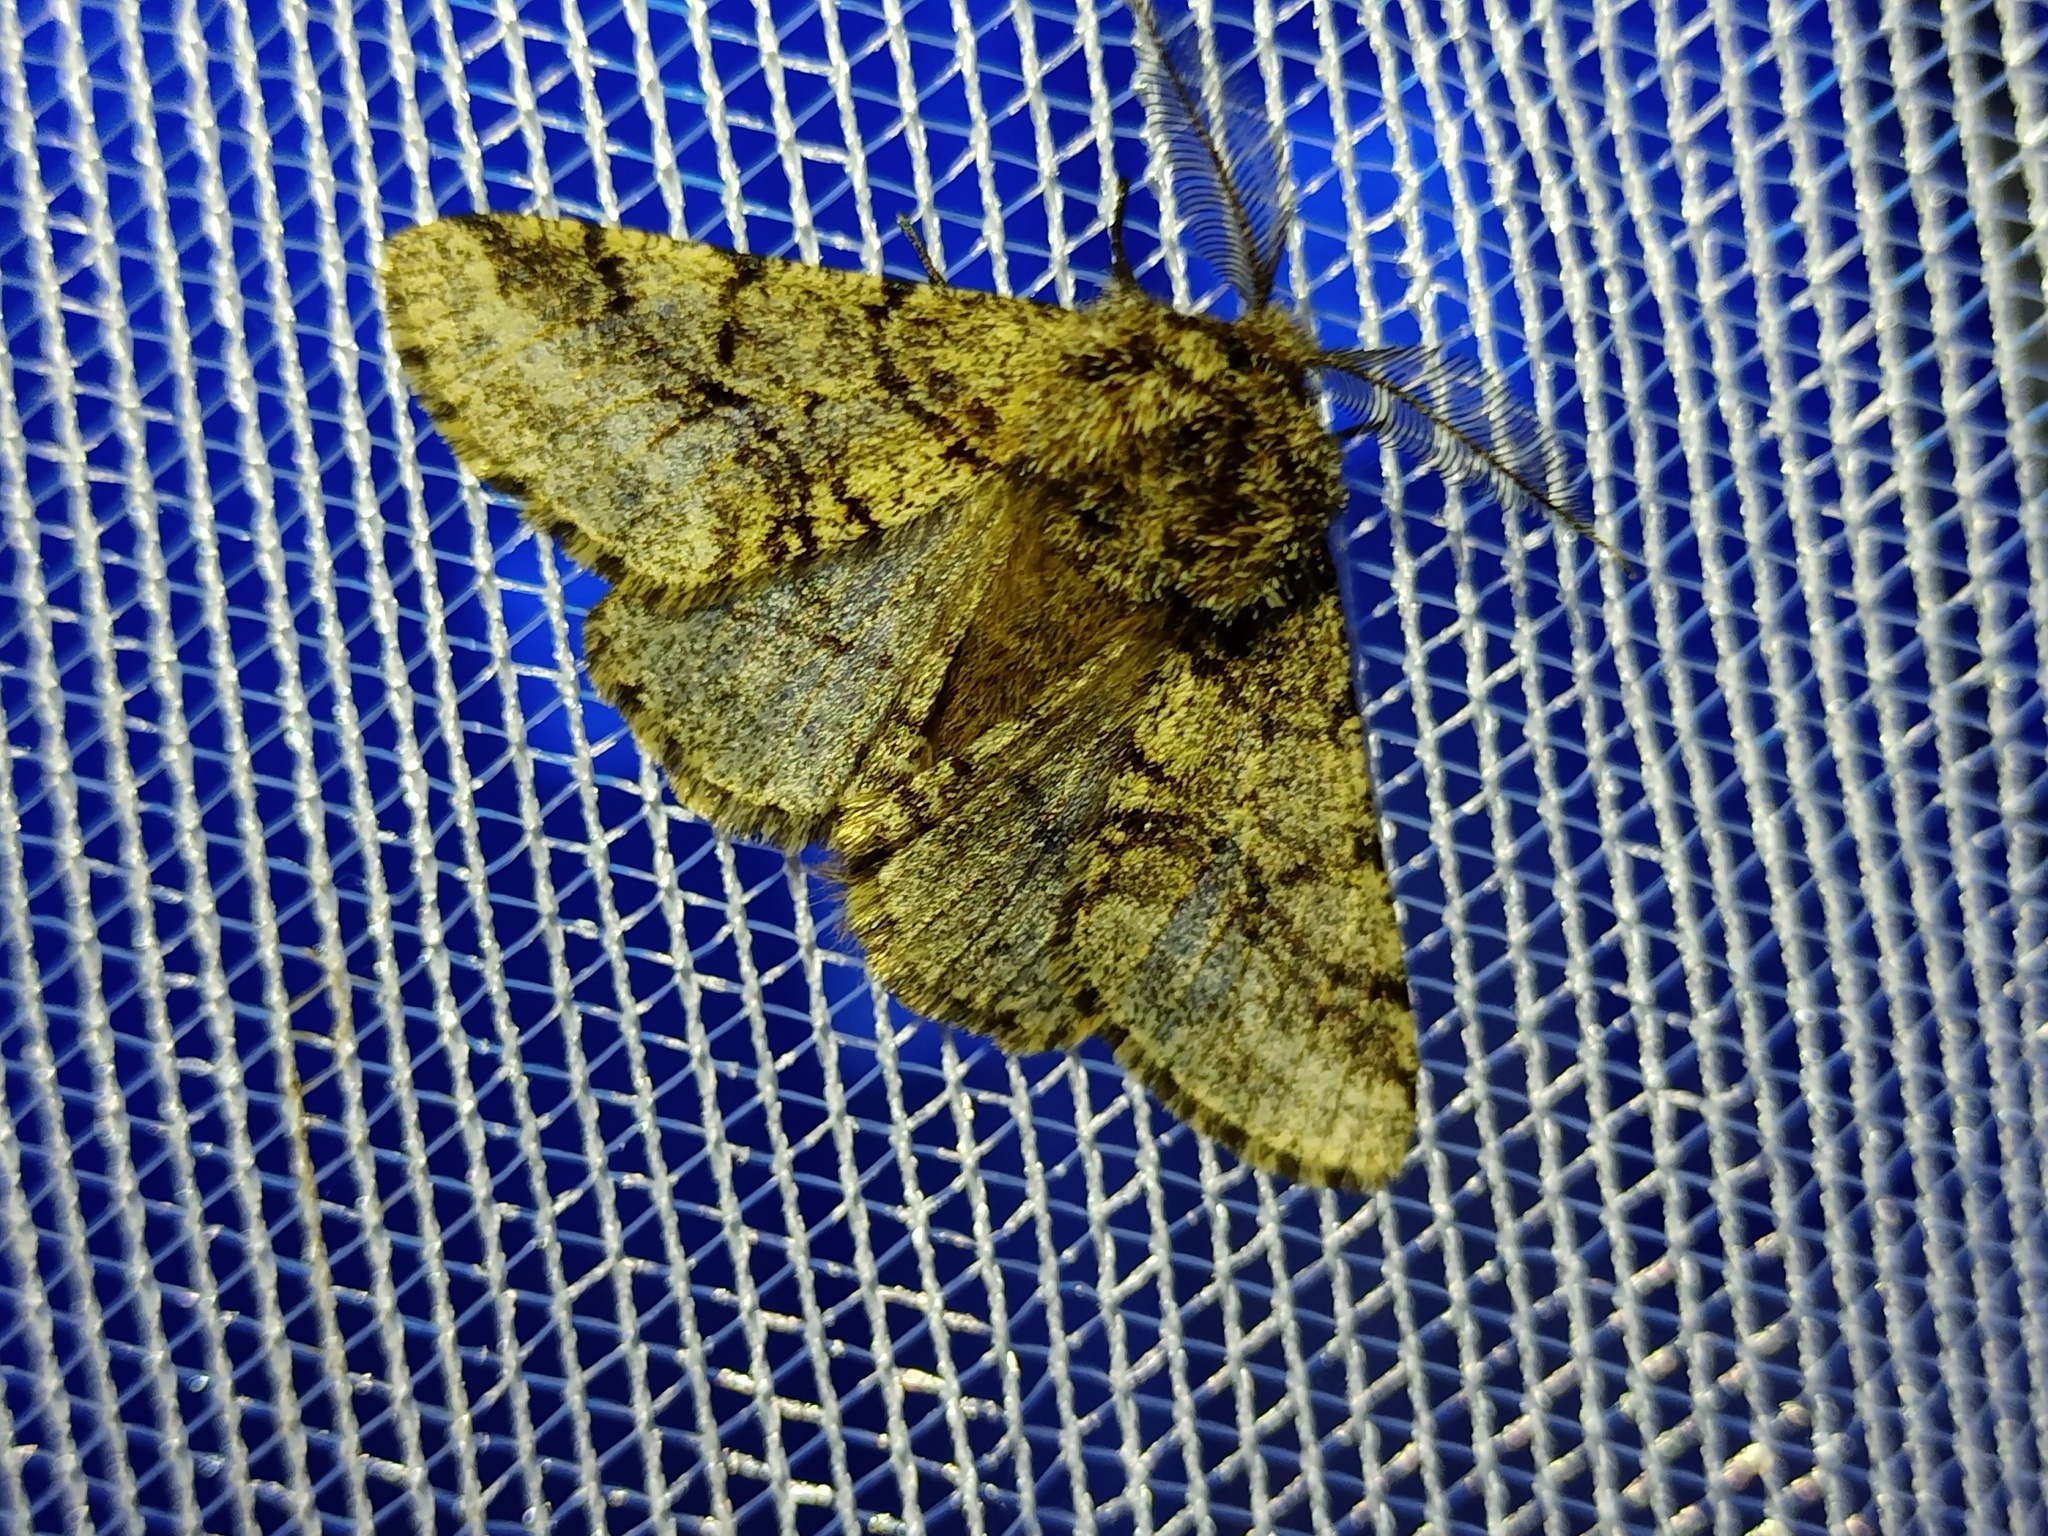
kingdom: Animalia
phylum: Arthropoda
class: Insecta
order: Lepidoptera
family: Geometridae
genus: Lycia
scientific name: Lycia hirtaria
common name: Brindled beauty
